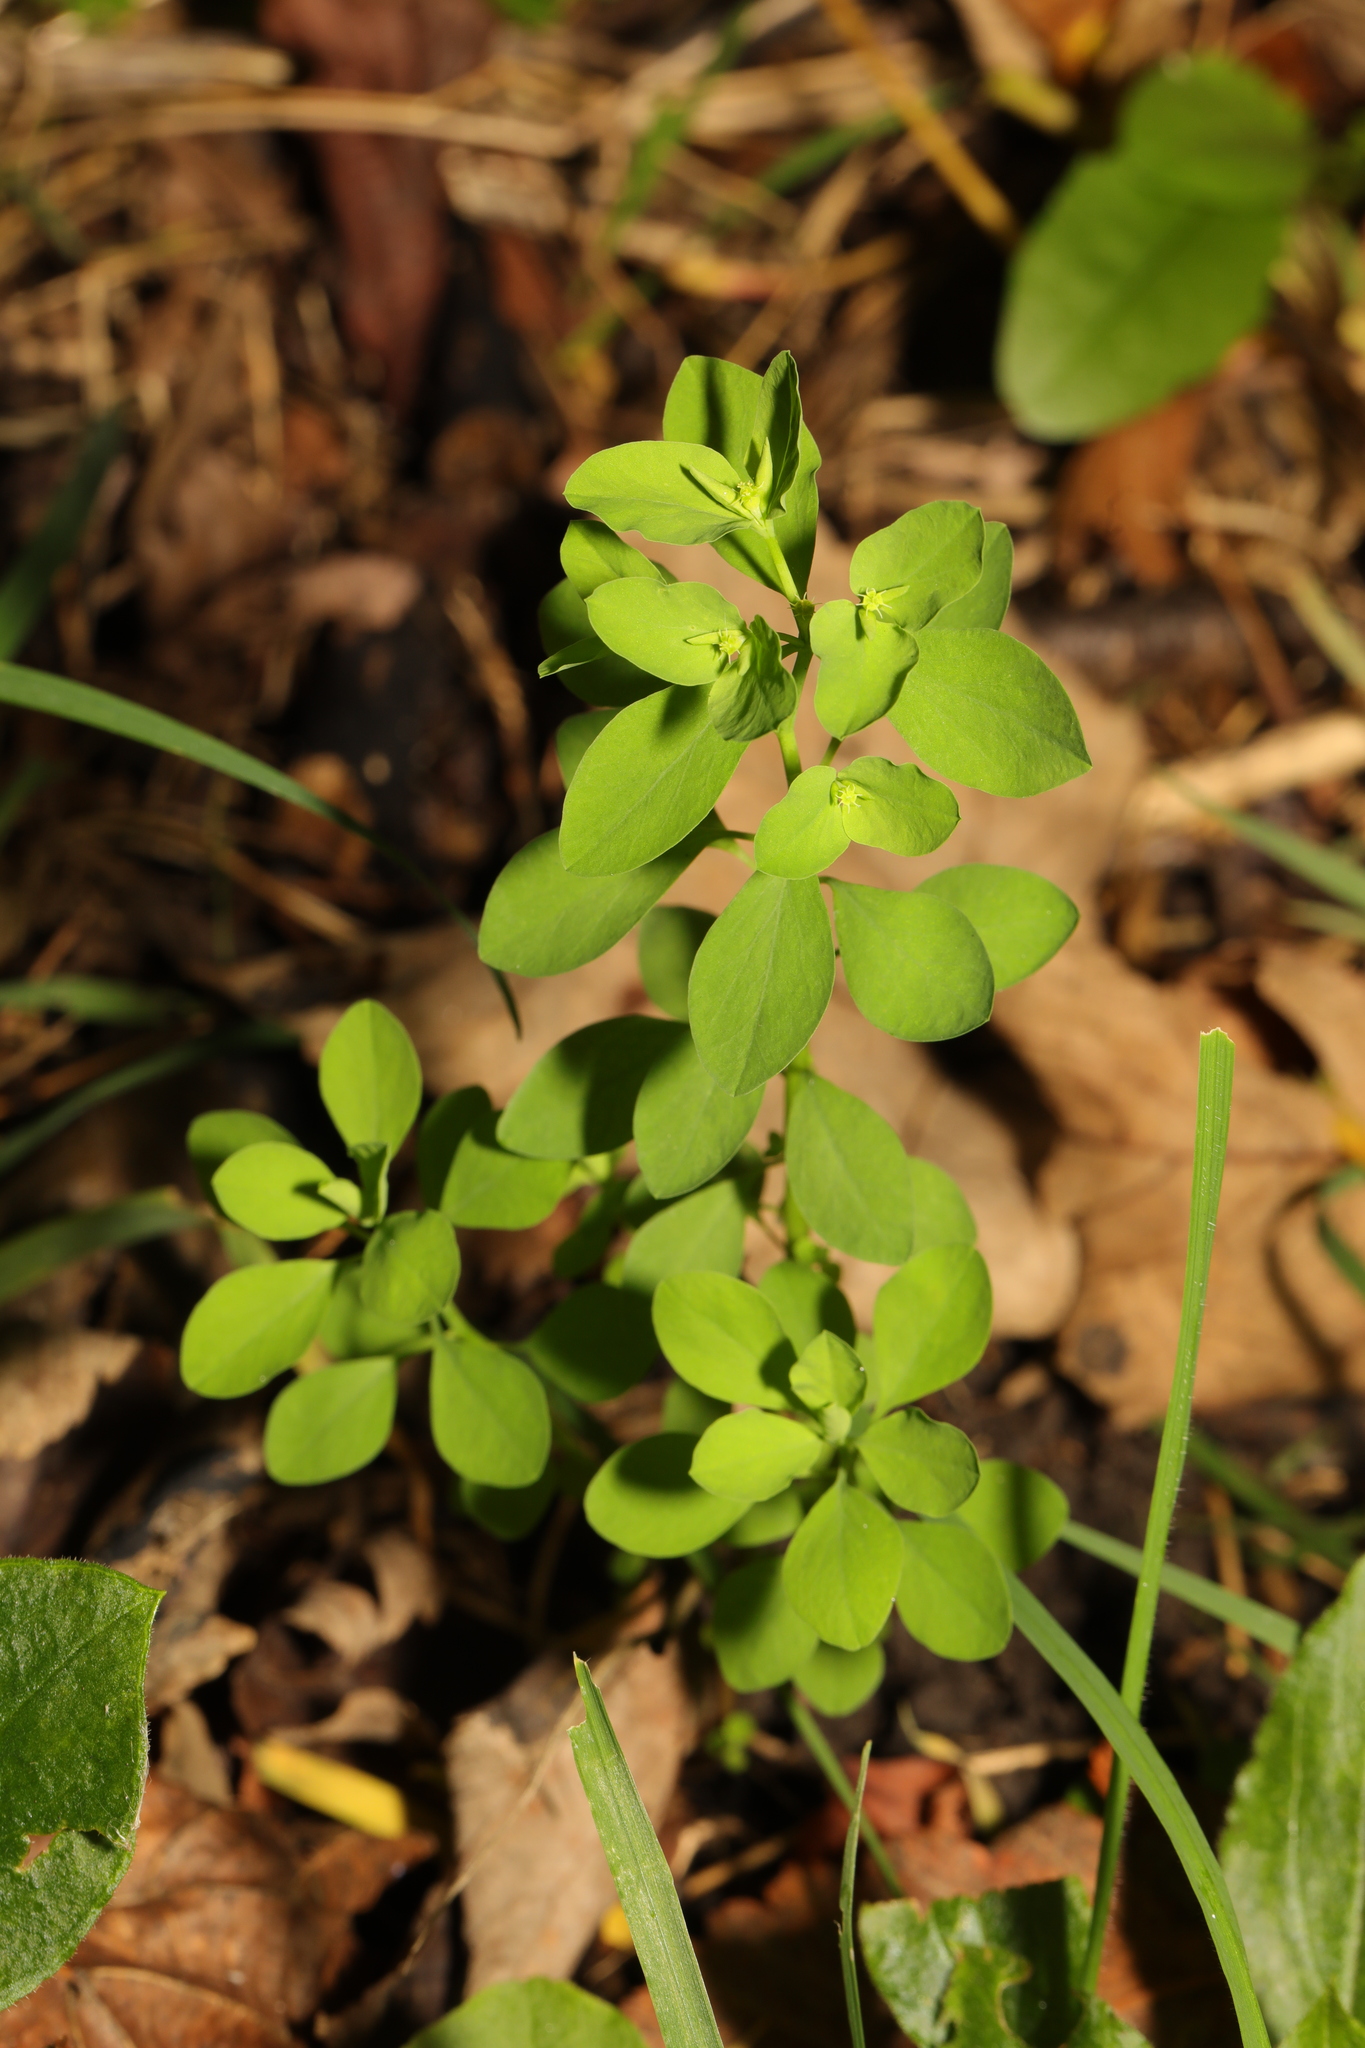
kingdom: Plantae
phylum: Tracheophyta
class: Magnoliopsida
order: Malpighiales
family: Euphorbiaceae
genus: Euphorbia
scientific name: Euphorbia peplus
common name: Petty spurge
